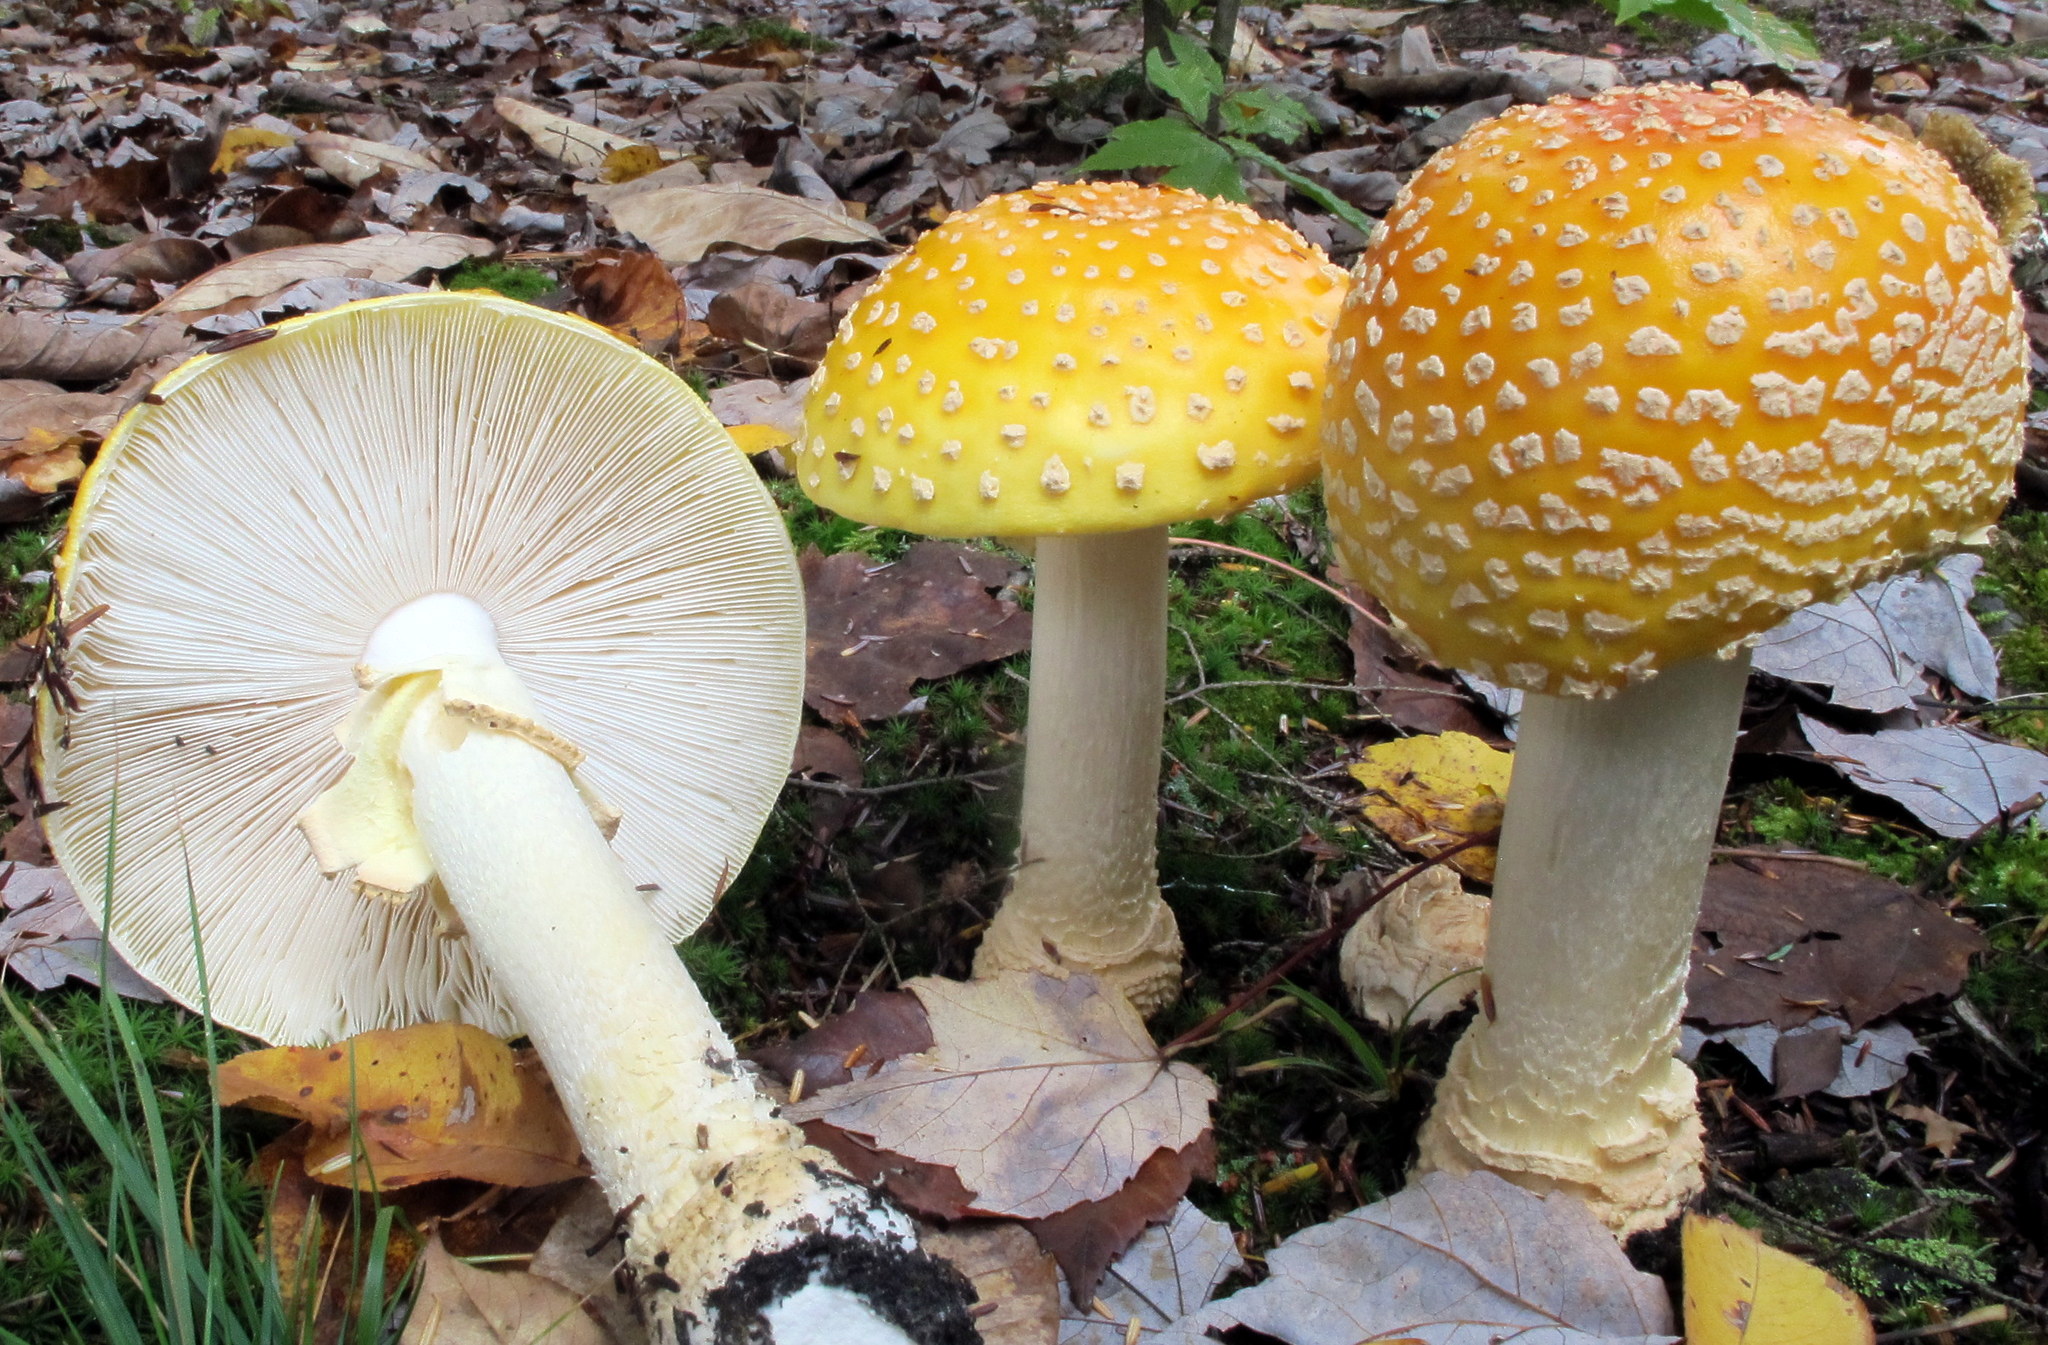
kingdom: Fungi
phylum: Basidiomycota
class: Agaricomycetes
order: Agaricales
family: Amanitaceae
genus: Amanita
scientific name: Amanita muscaria
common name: Fly agaric
